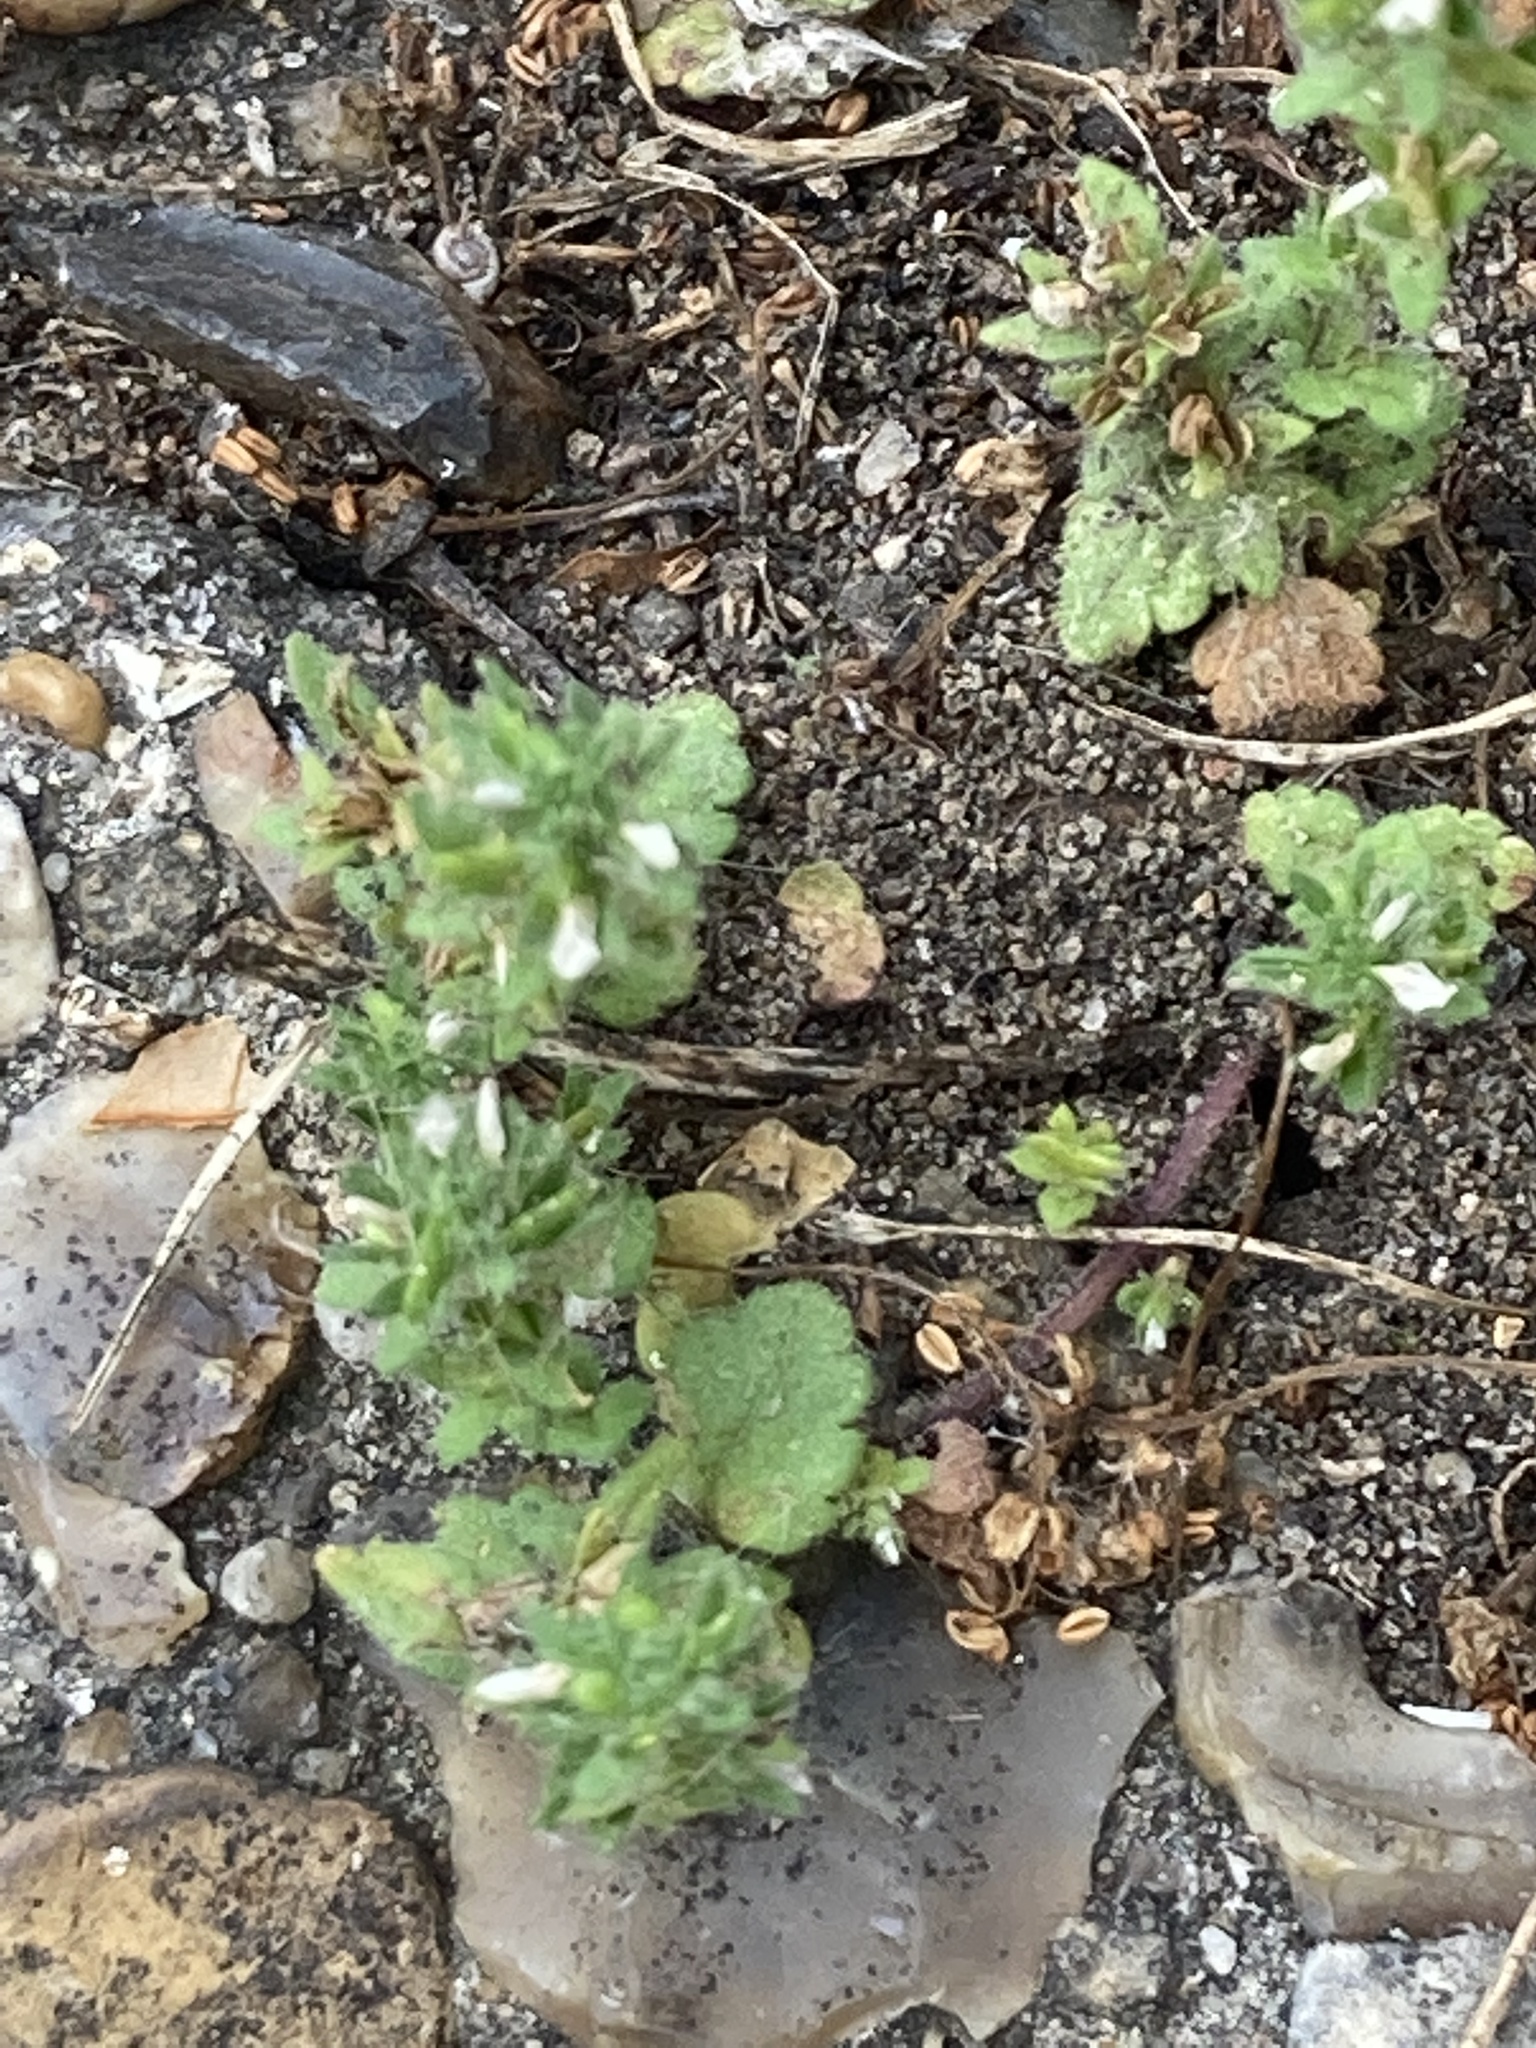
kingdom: Plantae
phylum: Tracheophyta
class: Magnoliopsida
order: Lamiales
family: Plantaginaceae
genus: Veronica
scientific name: Veronica arvensis
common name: Corn speedwell
